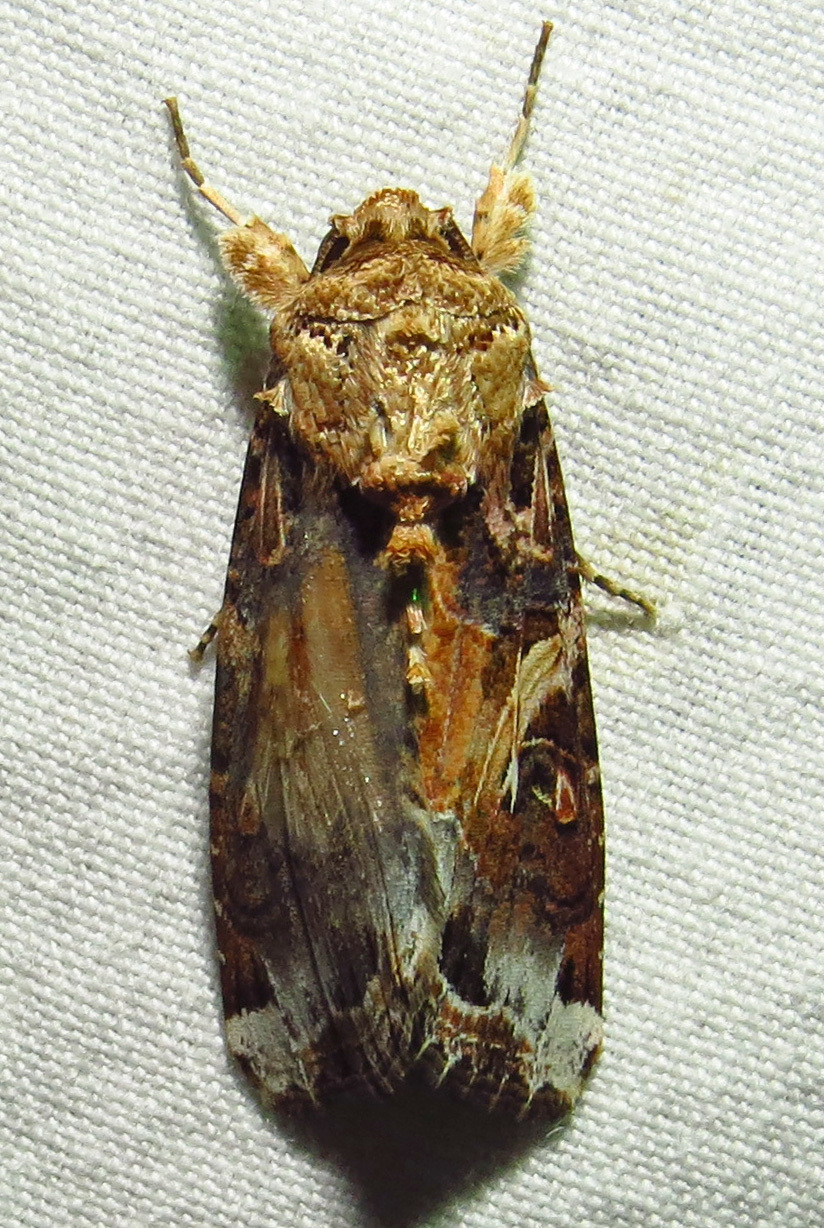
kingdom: Animalia
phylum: Arthropoda
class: Insecta
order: Lepidoptera
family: Noctuidae
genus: Spodoptera
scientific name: Spodoptera ornithogalli
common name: Yellow-striped armyworm
